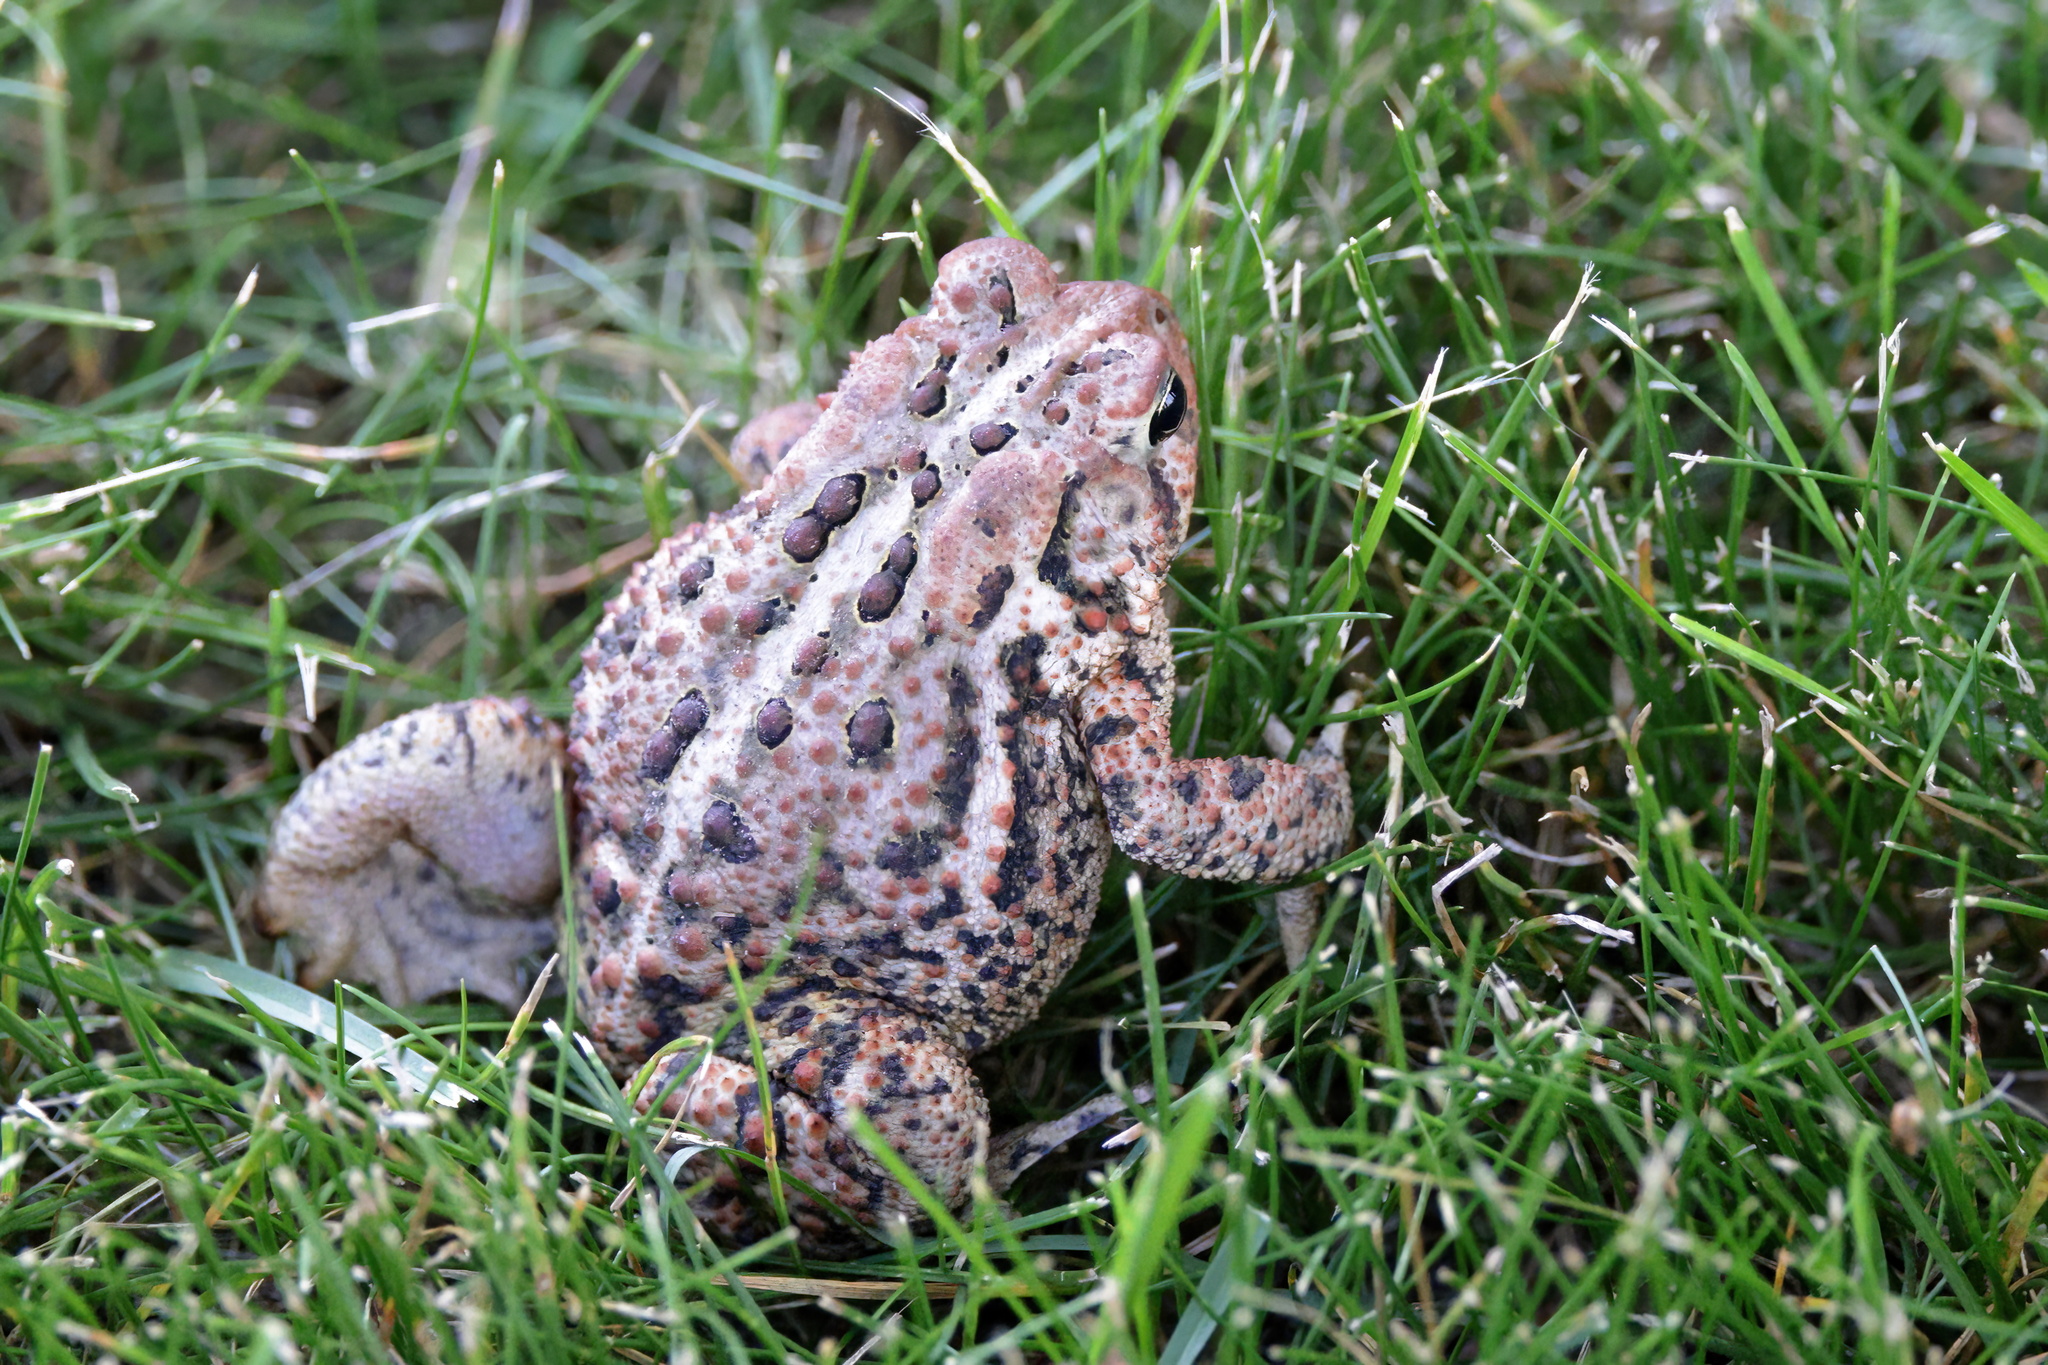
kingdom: Animalia
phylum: Chordata
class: Amphibia
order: Anura
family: Bufonidae
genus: Anaxyrus
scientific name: Anaxyrus americanus
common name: American toad
